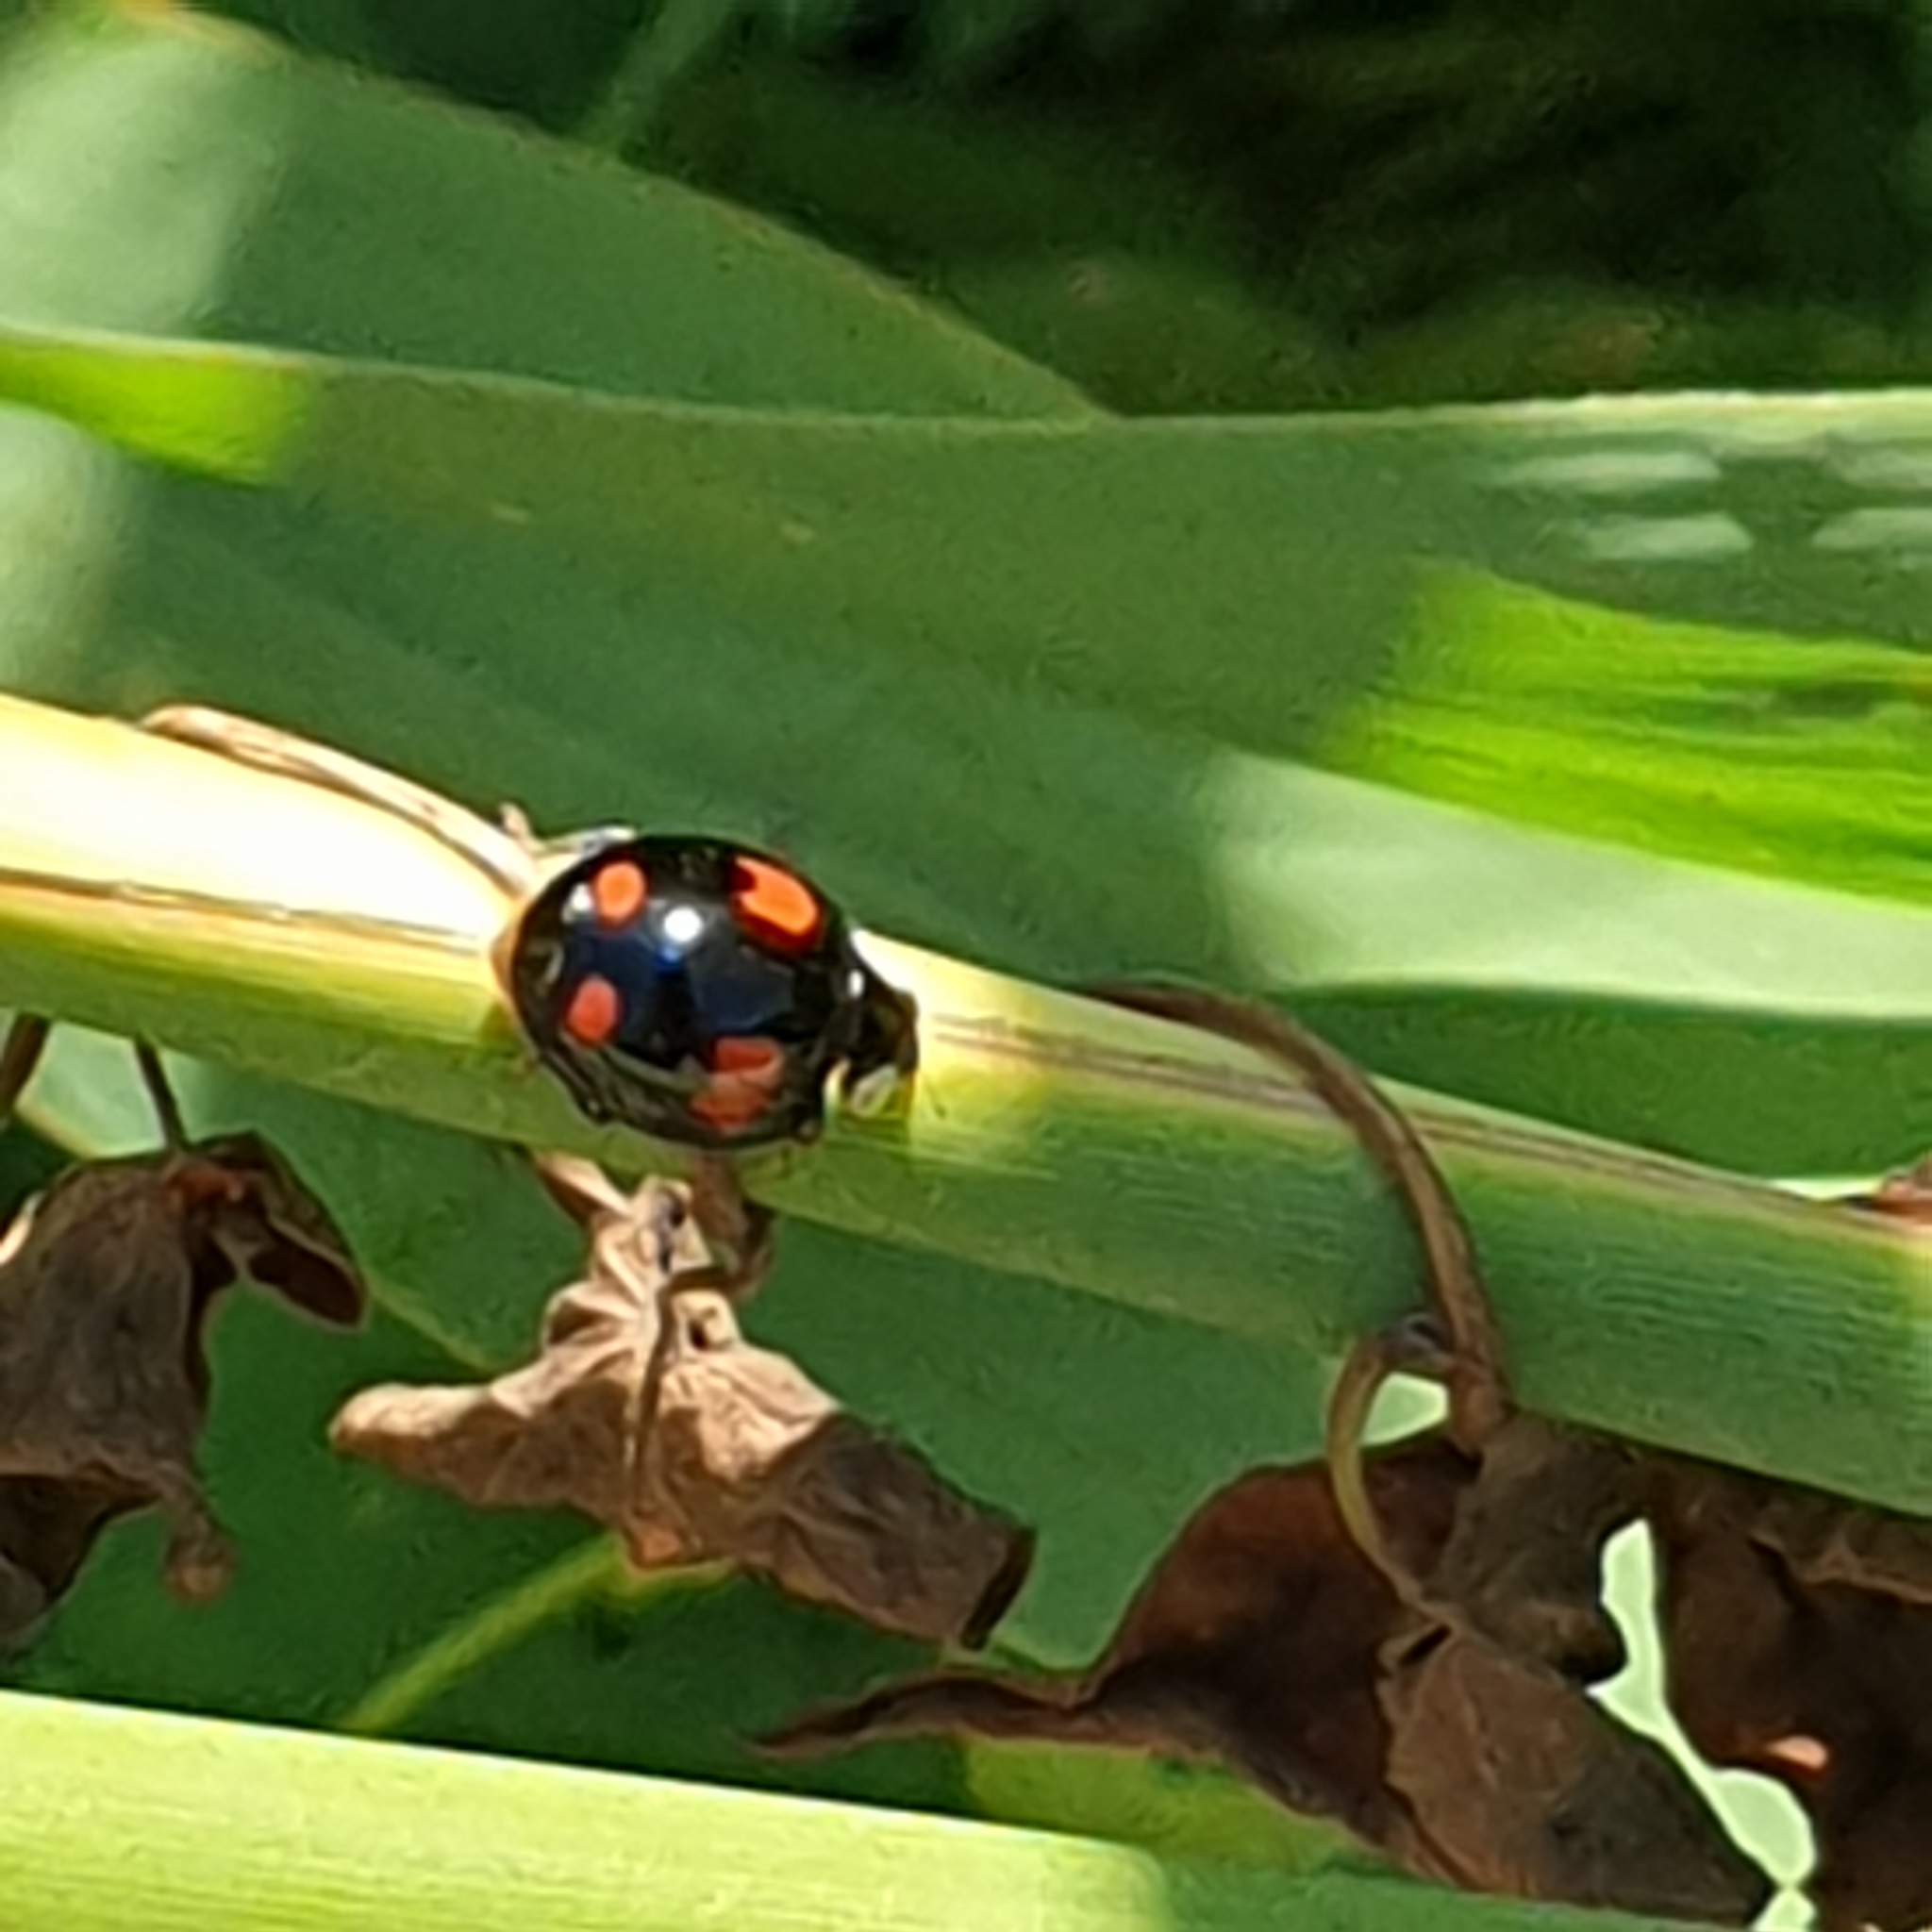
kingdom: Animalia
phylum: Arthropoda
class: Insecta
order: Coleoptera
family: Coccinellidae
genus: Harmonia
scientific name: Harmonia axyridis
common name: Harlequin ladybird
